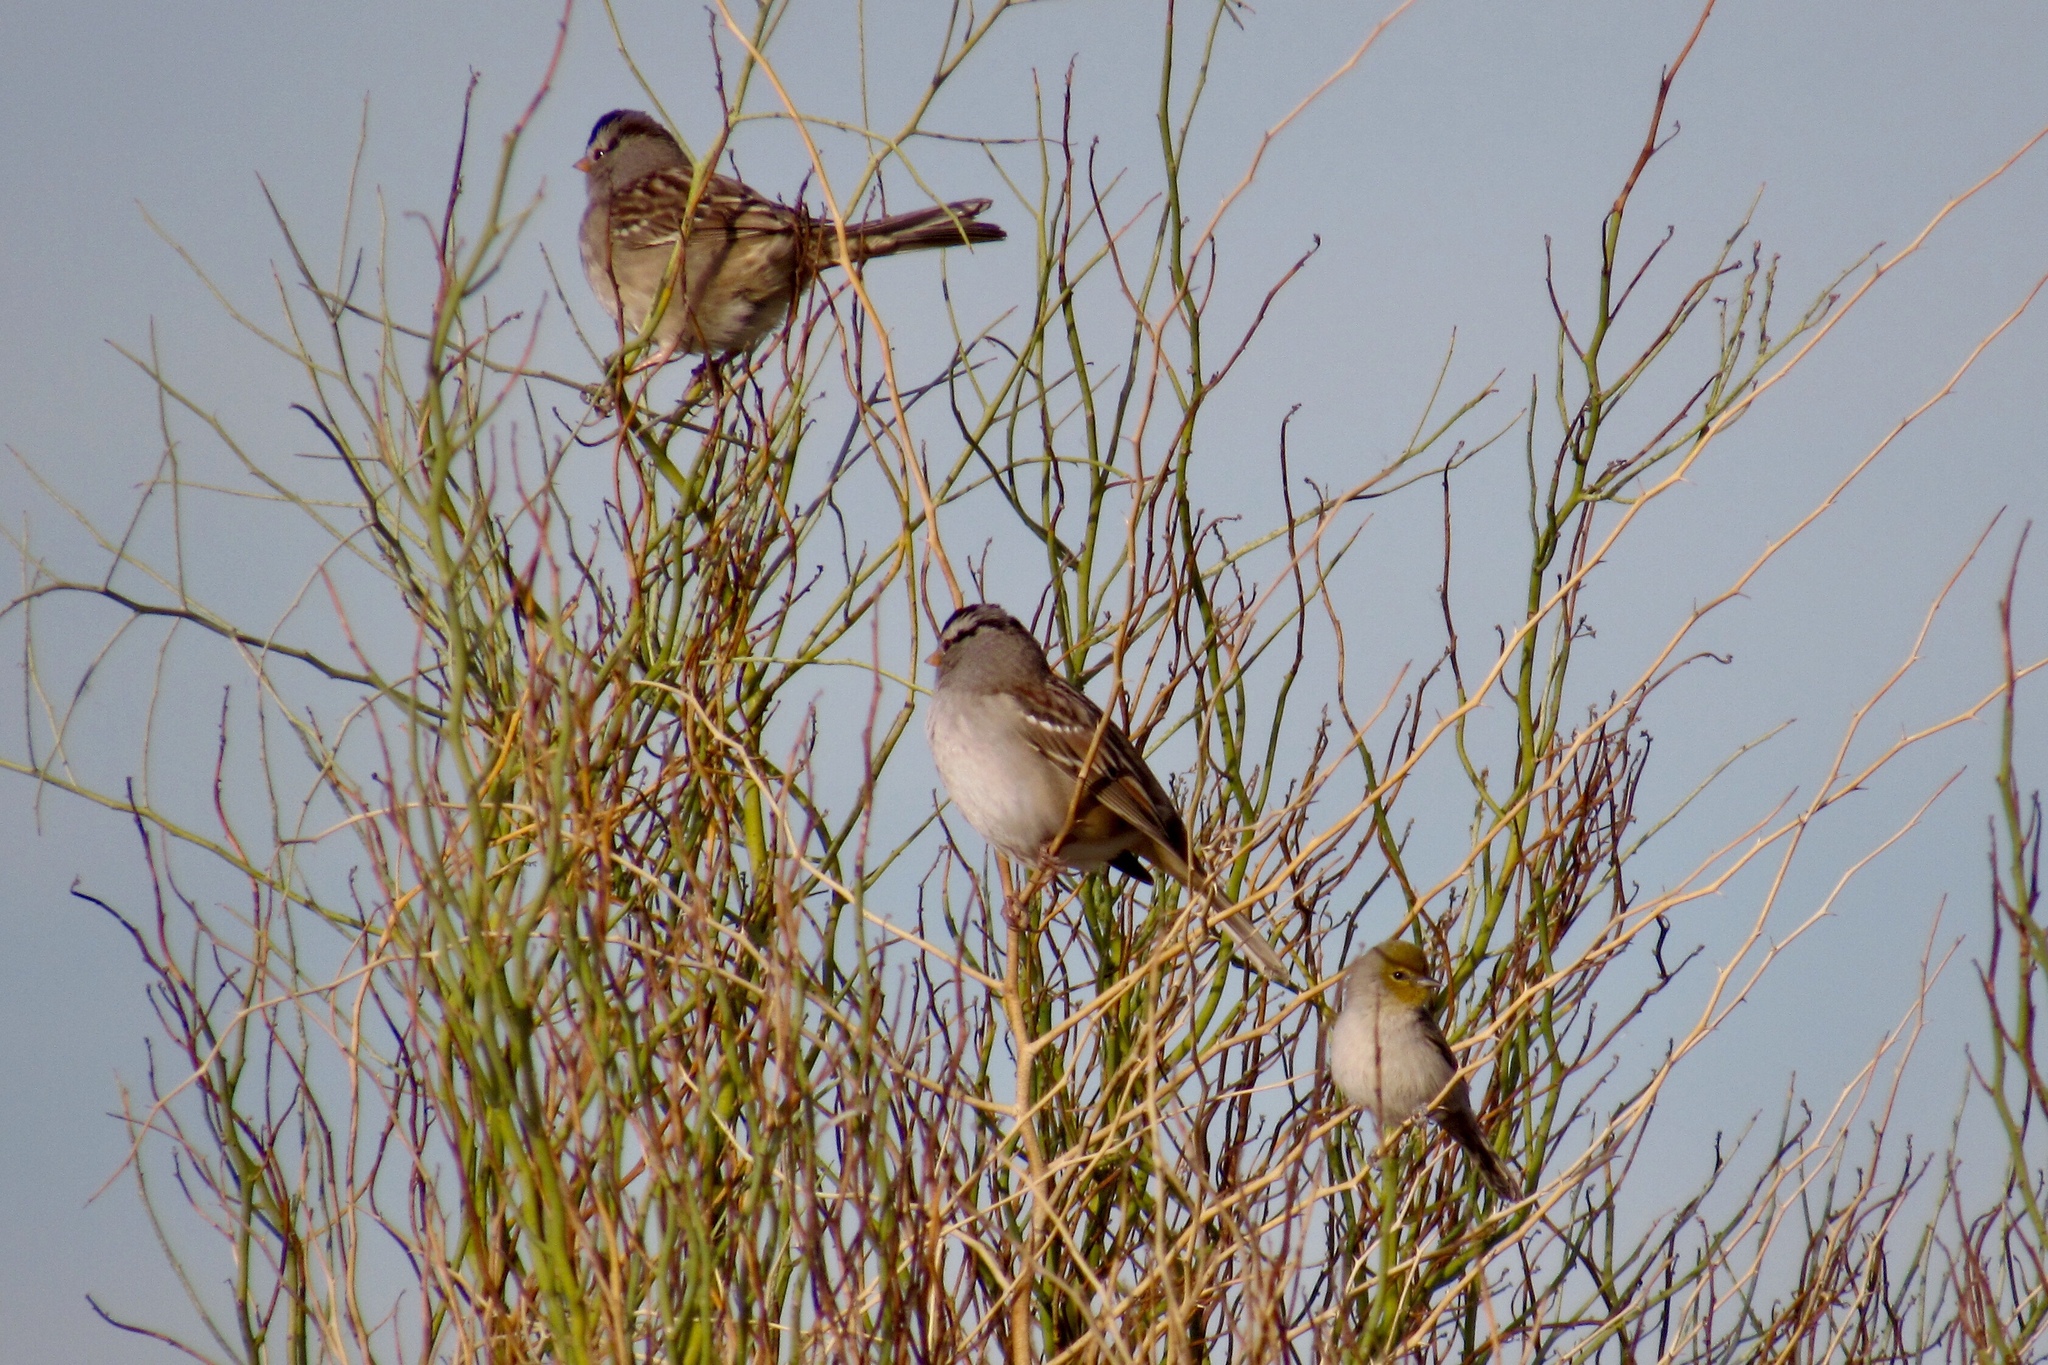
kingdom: Animalia
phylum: Chordata
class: Aves
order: Passeriformes
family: Remizidae
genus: Auriparus
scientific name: Auriparus flaviceps
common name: Verdin
